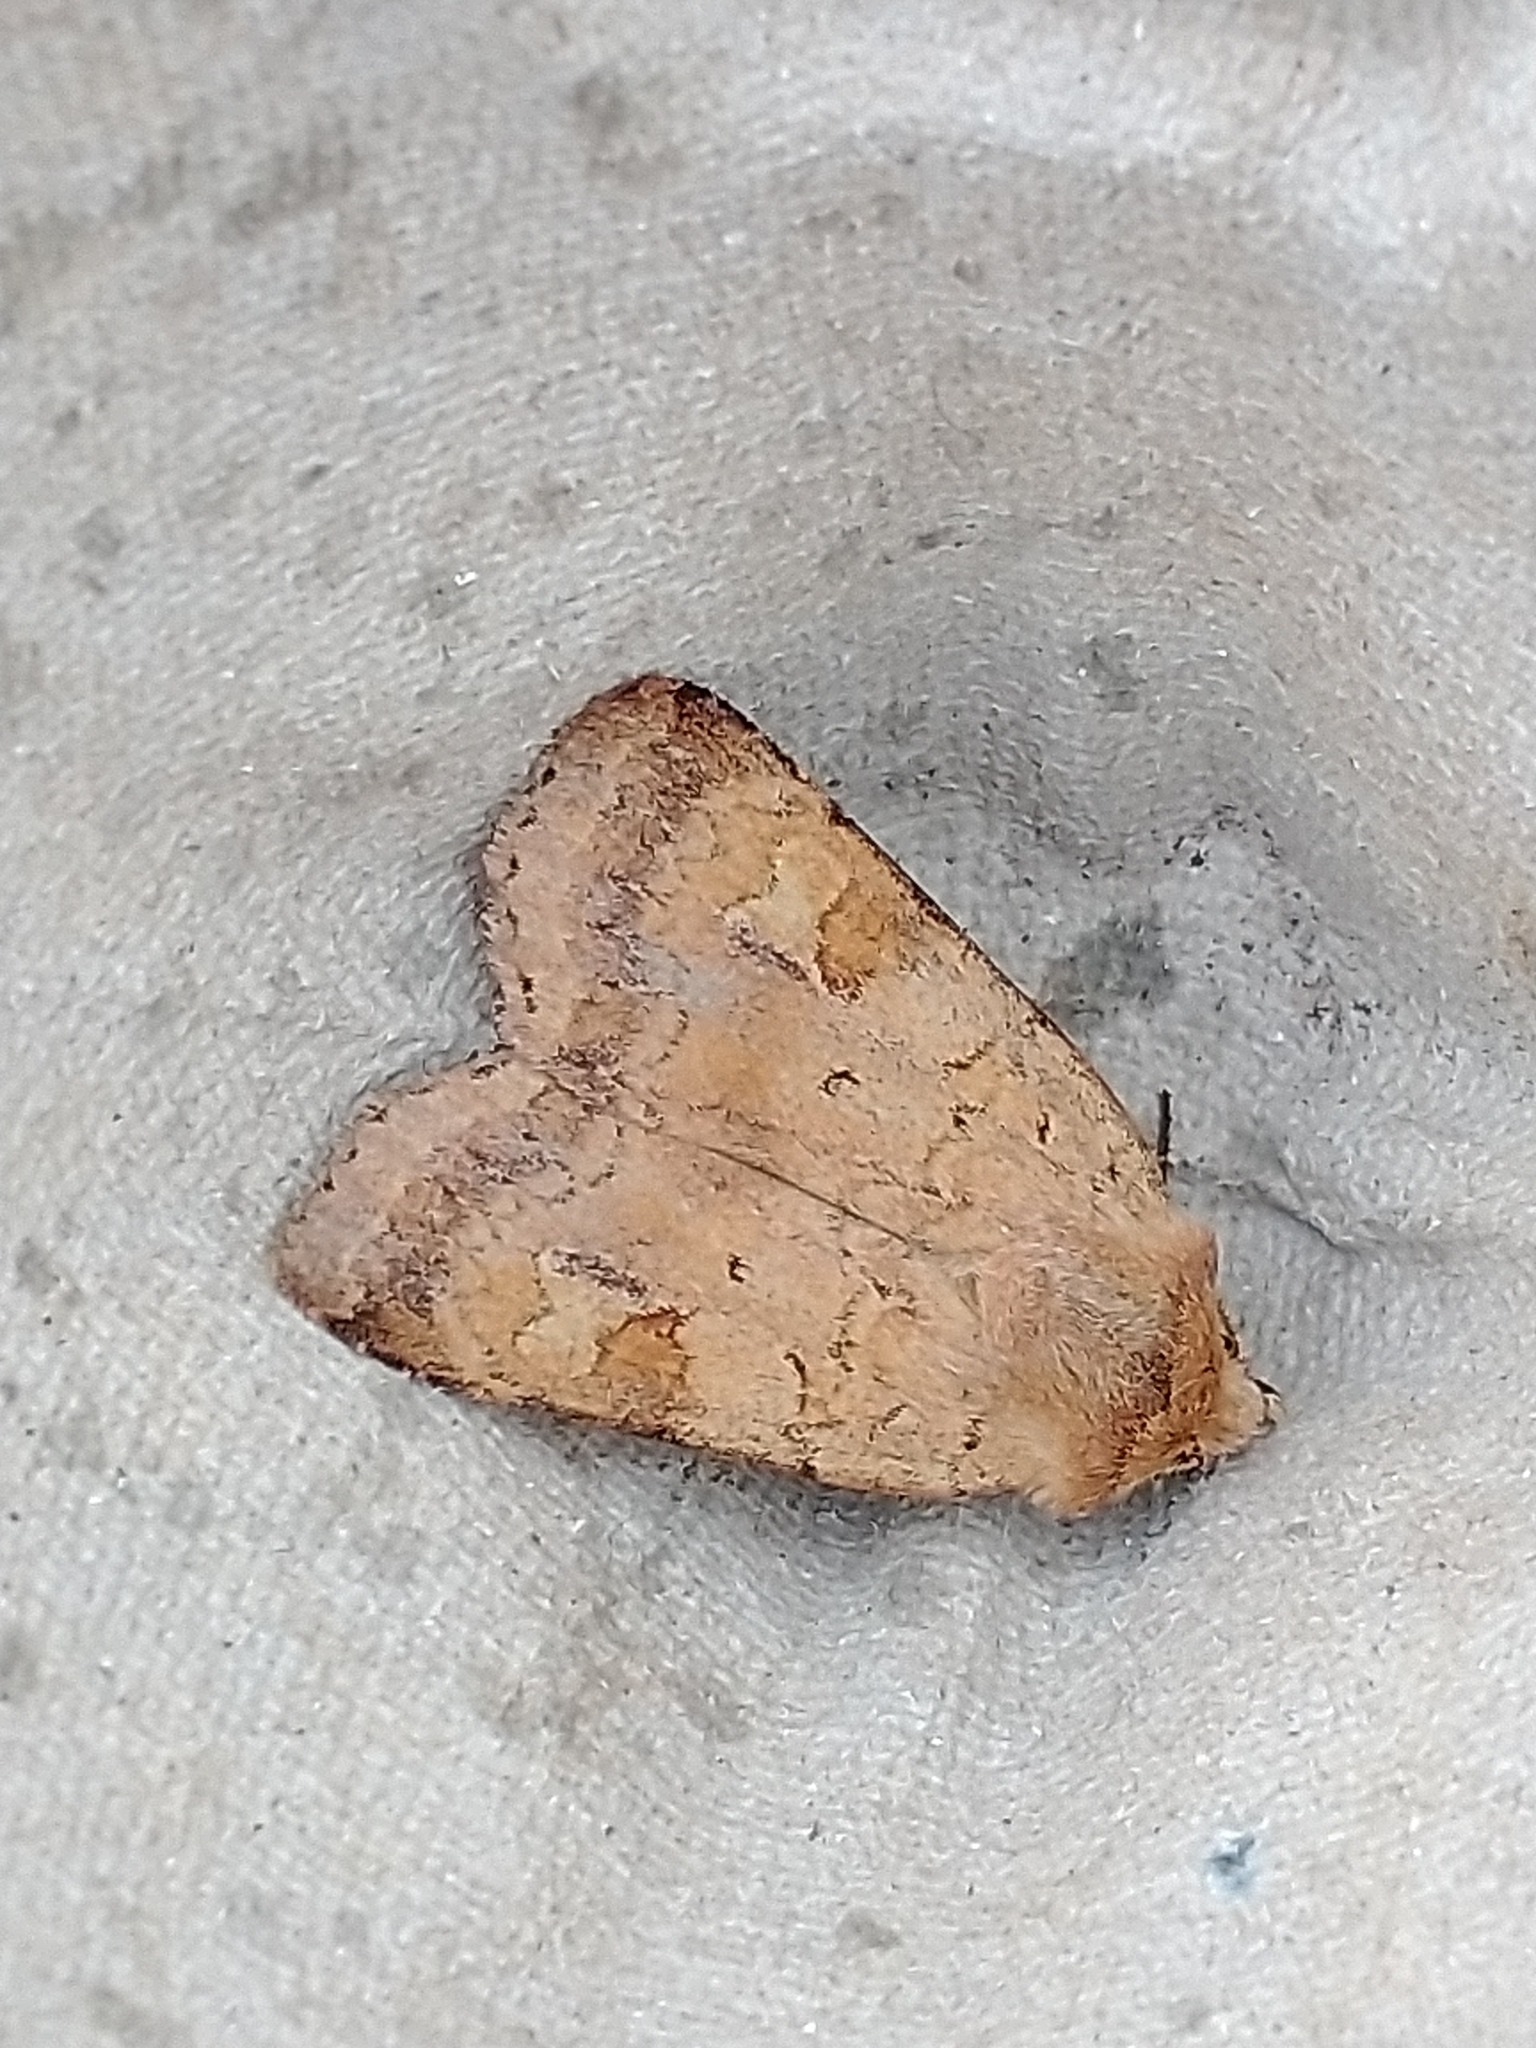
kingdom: Animalia
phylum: Arthropoda
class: Insecta
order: Lepidoptera
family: Noctuidae
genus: Diarsia
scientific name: Diarsia mendica
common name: Ingrailed clay
